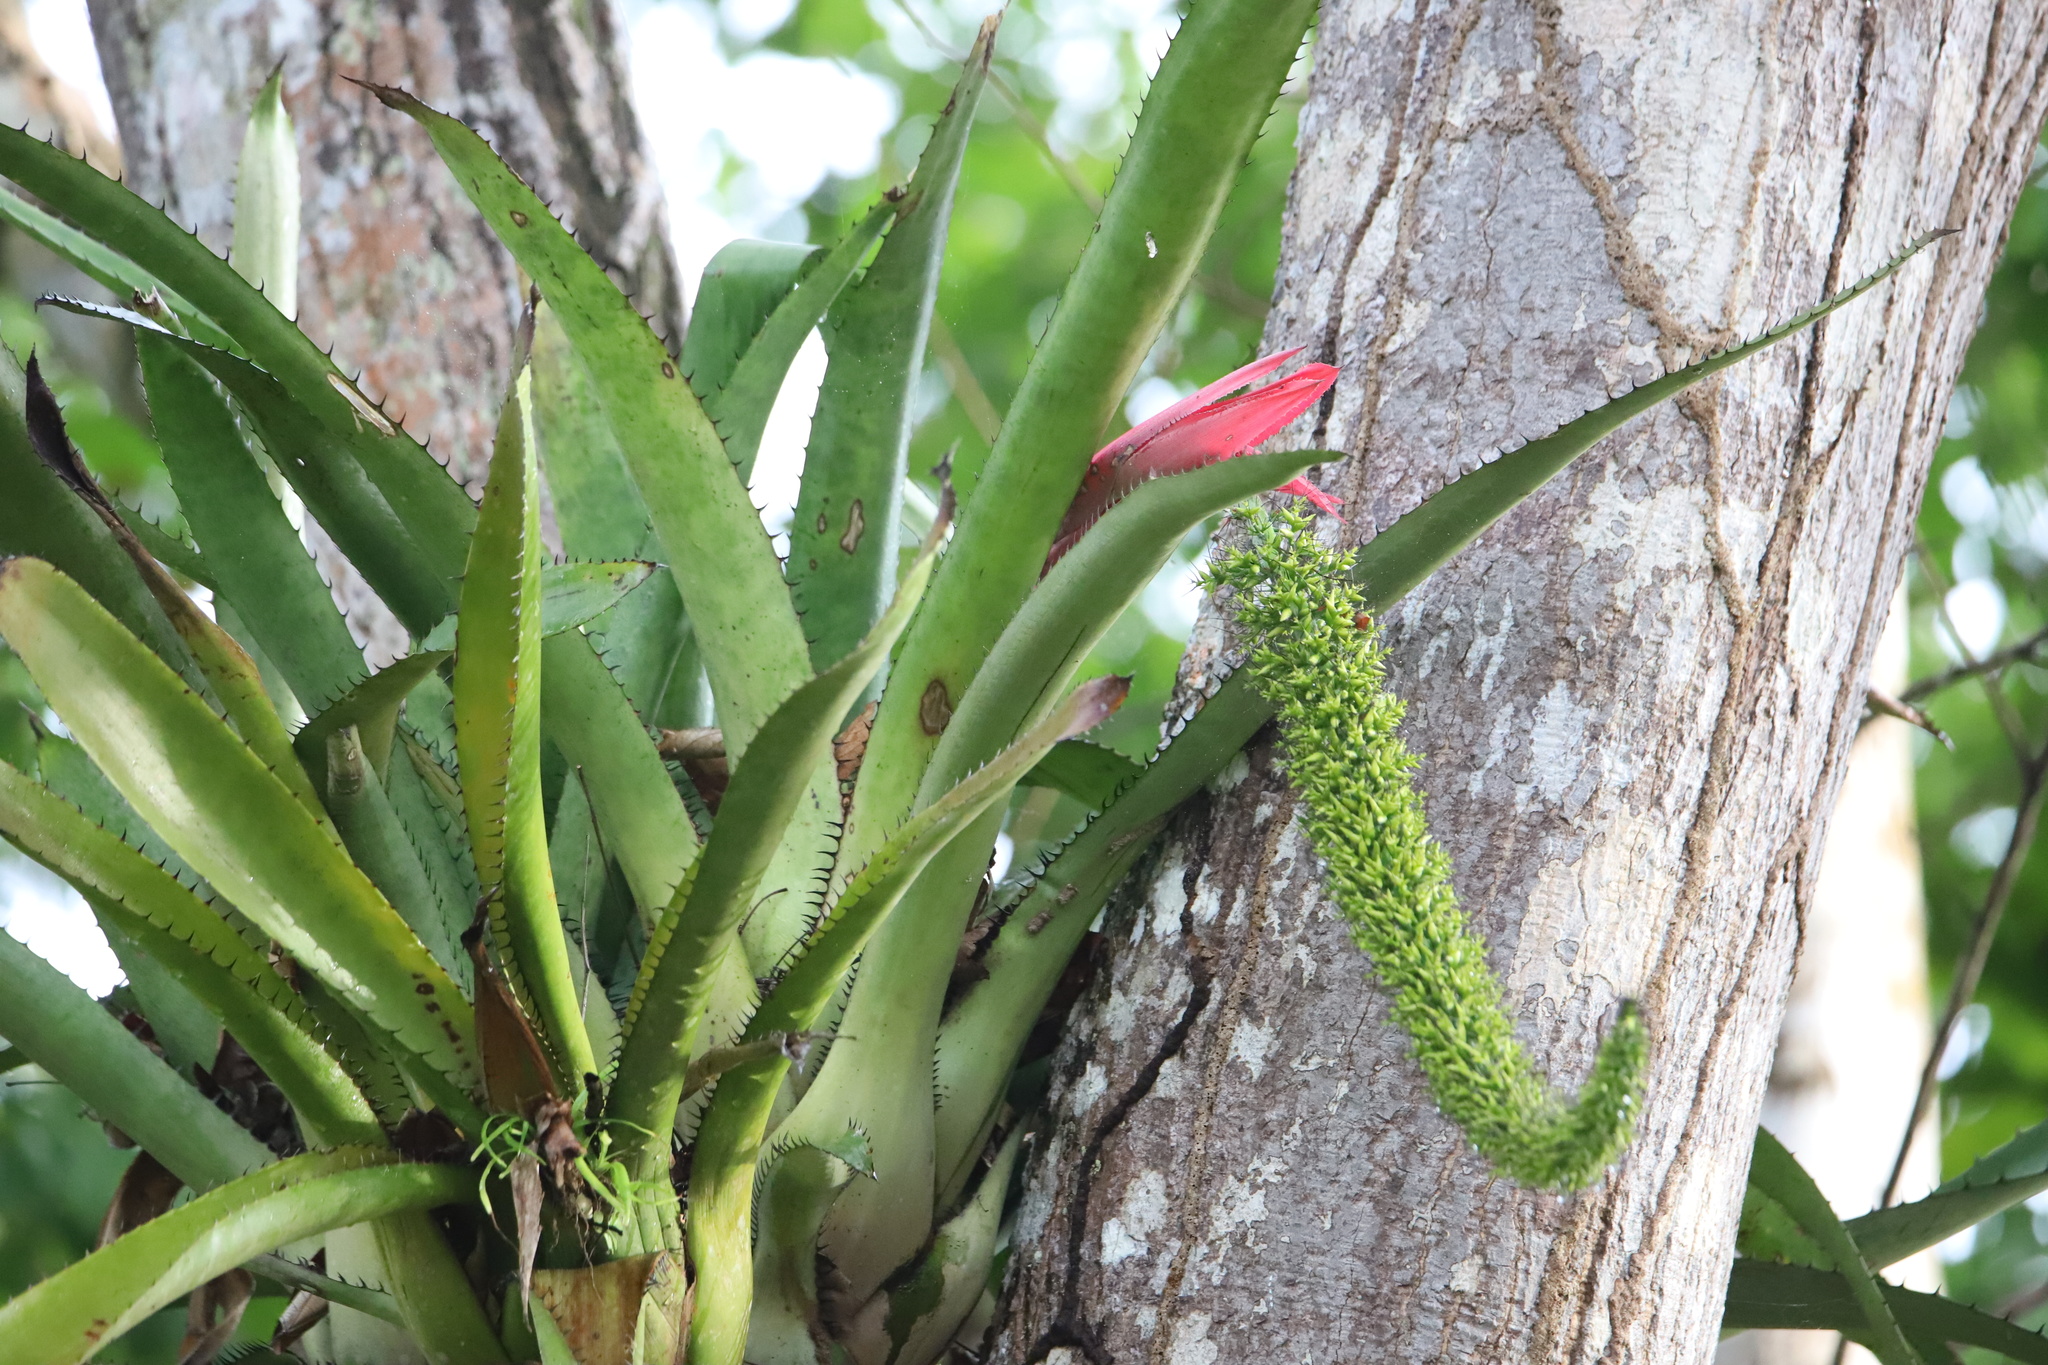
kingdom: Plantae
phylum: Tracheophyta
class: Liliopsida
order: Poales
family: Bromeliaceae
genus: Aechmea
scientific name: Aechmea setigera
